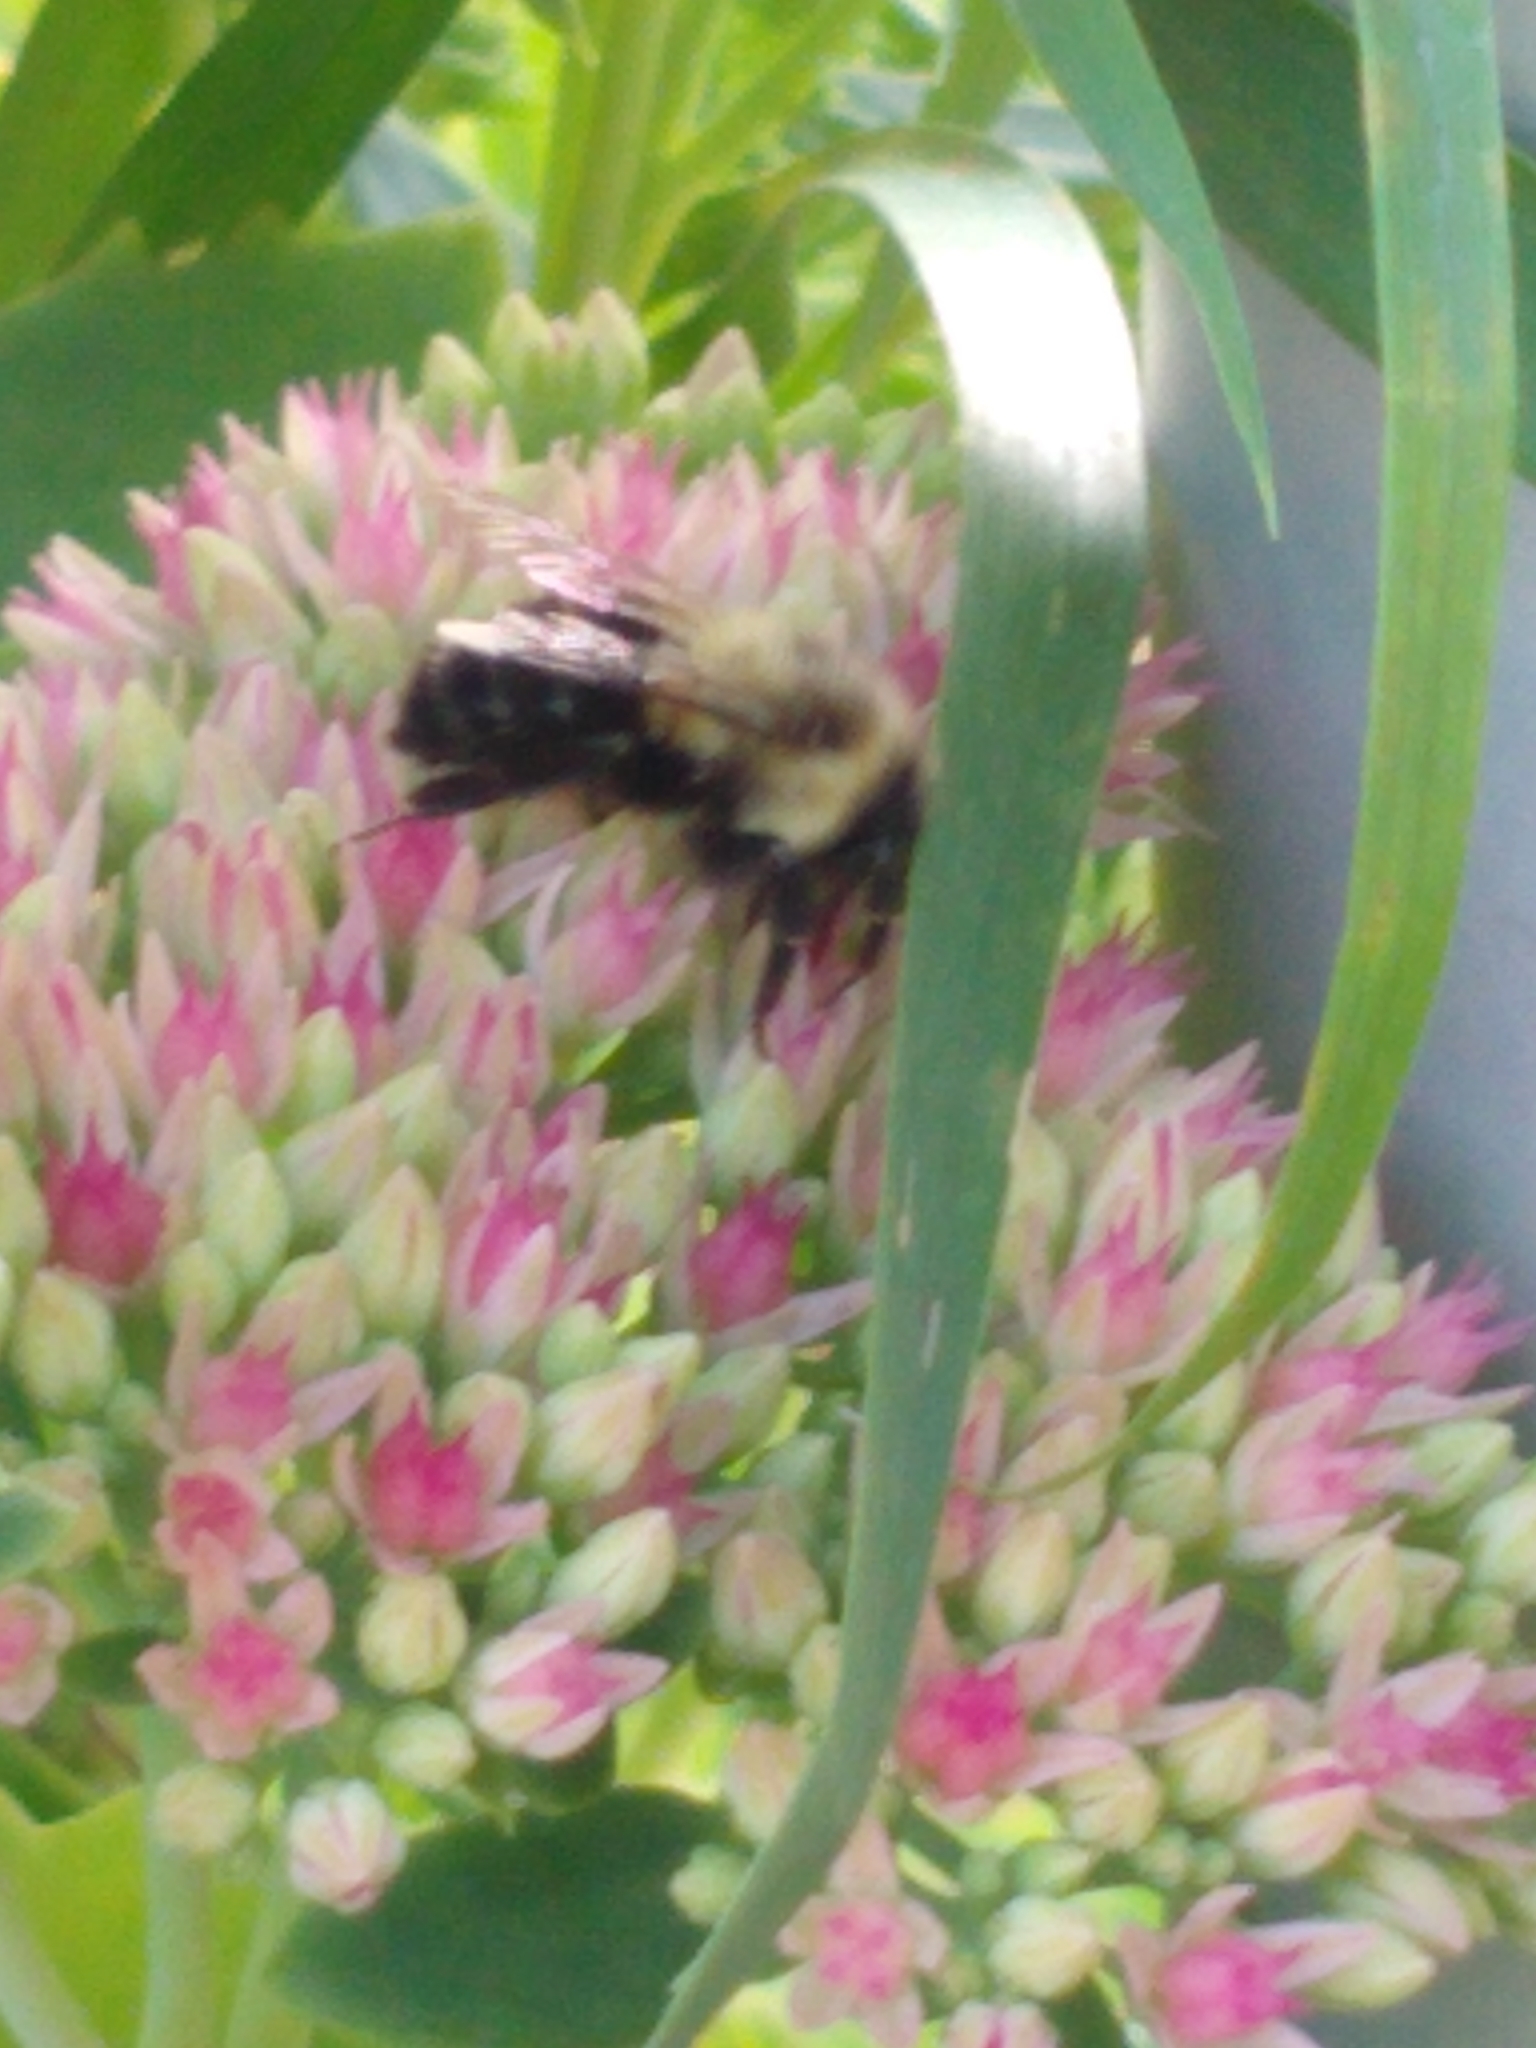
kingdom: Animalia
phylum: Arthropoda
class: Insecta
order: Hymenoptera
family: Apidae
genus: Bombus
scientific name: Bombus impatiens
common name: Common eastern bumble bee
